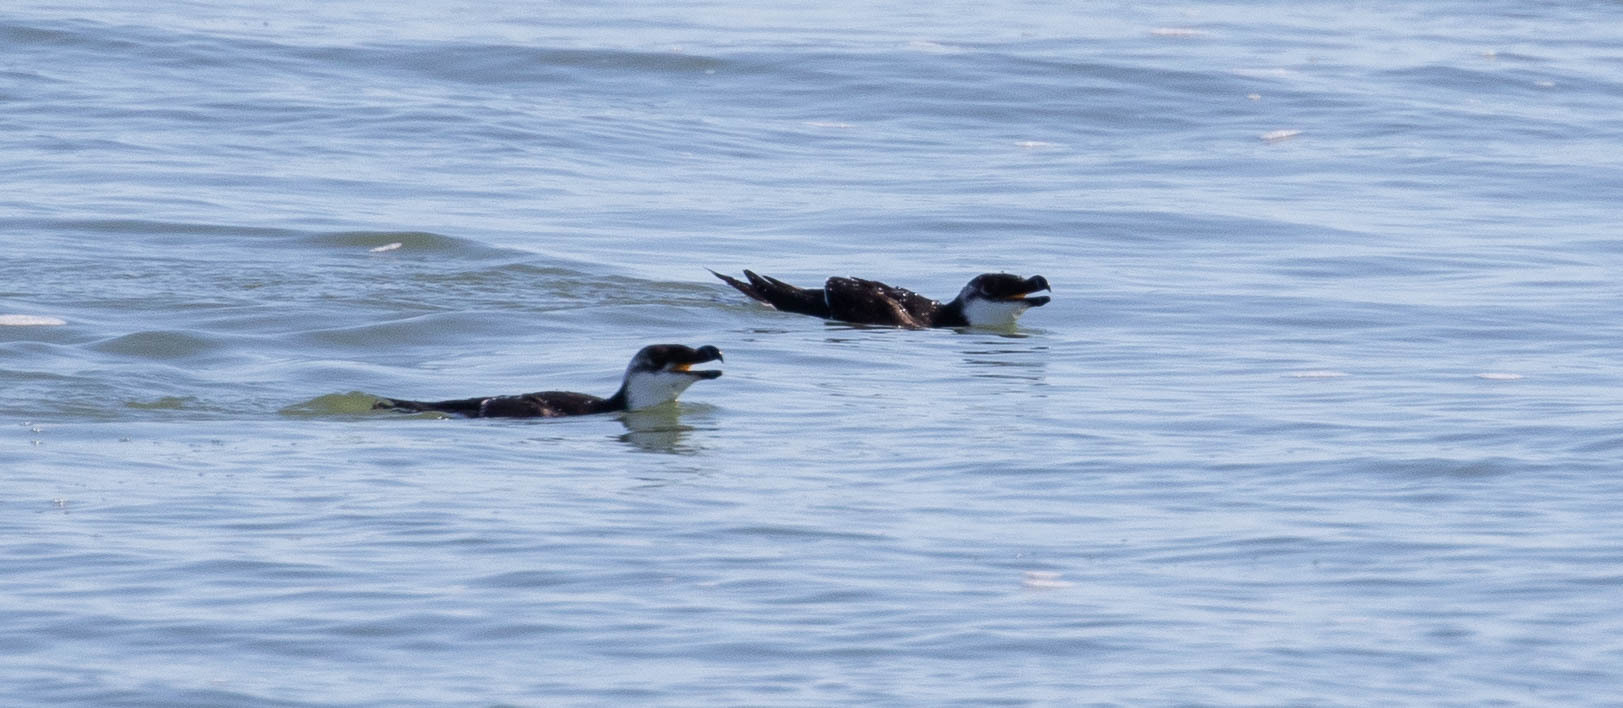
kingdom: Animalia
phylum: Chordata
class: Aves
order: Charadriiformes
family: Alcidae
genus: Alca
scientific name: Alca torda
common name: Razorbill
